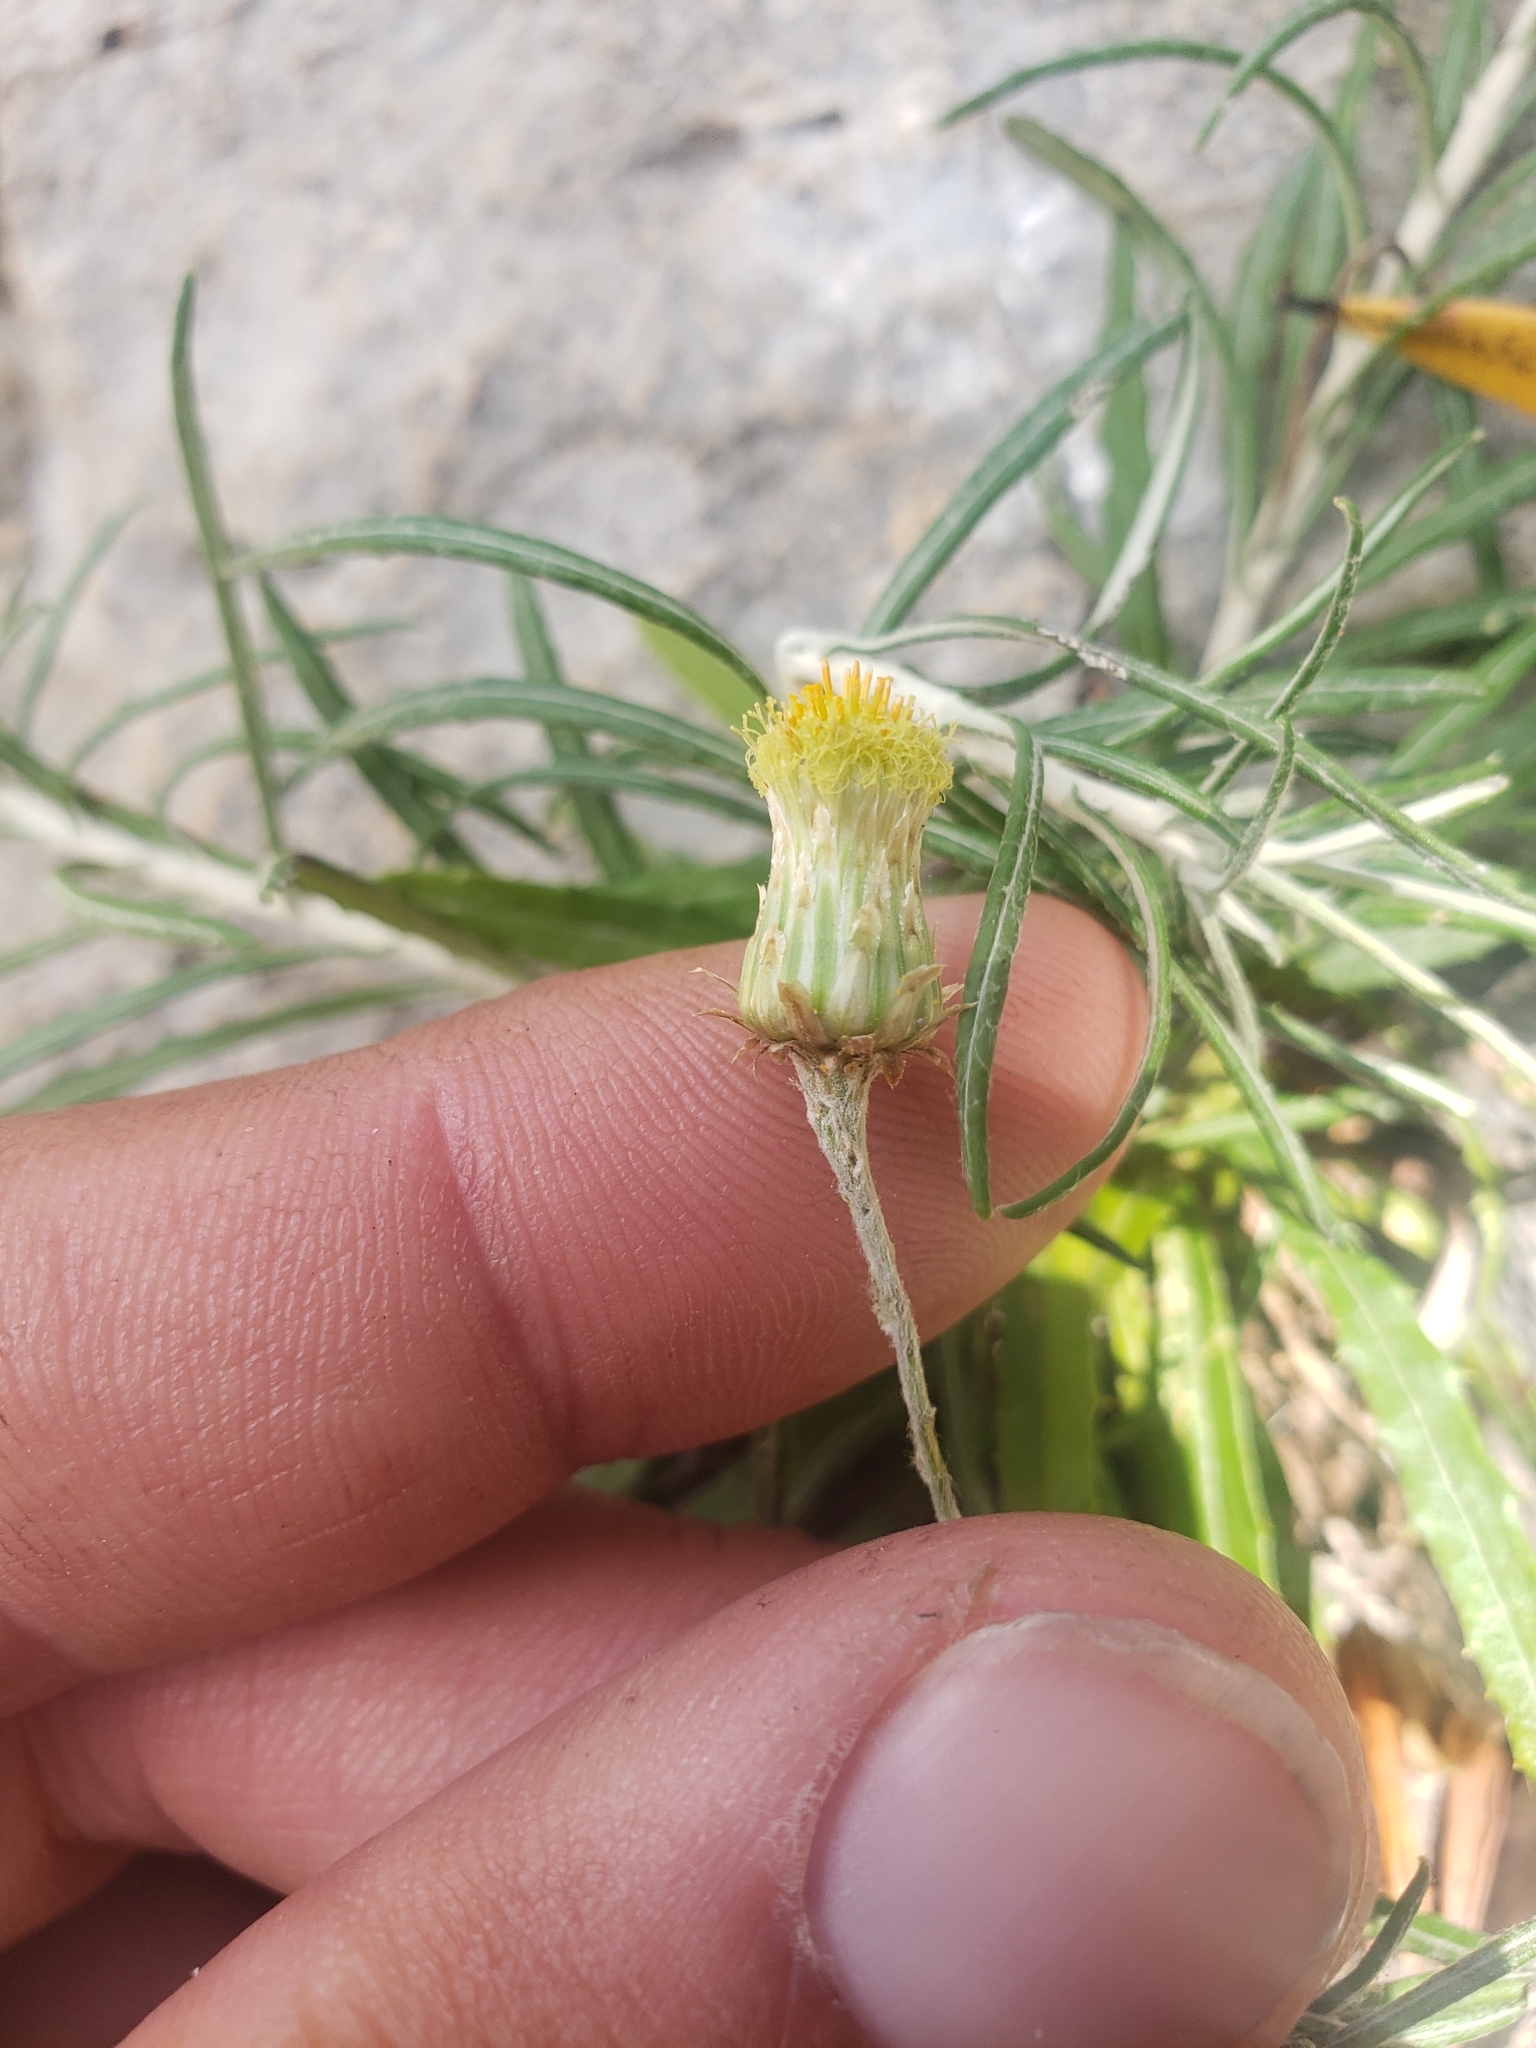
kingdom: Plantae
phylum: Tracheophyta
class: Magnoliopsida
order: Asterales
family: Asteraceae
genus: Phagnalon
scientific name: Phagnalon saxatile
